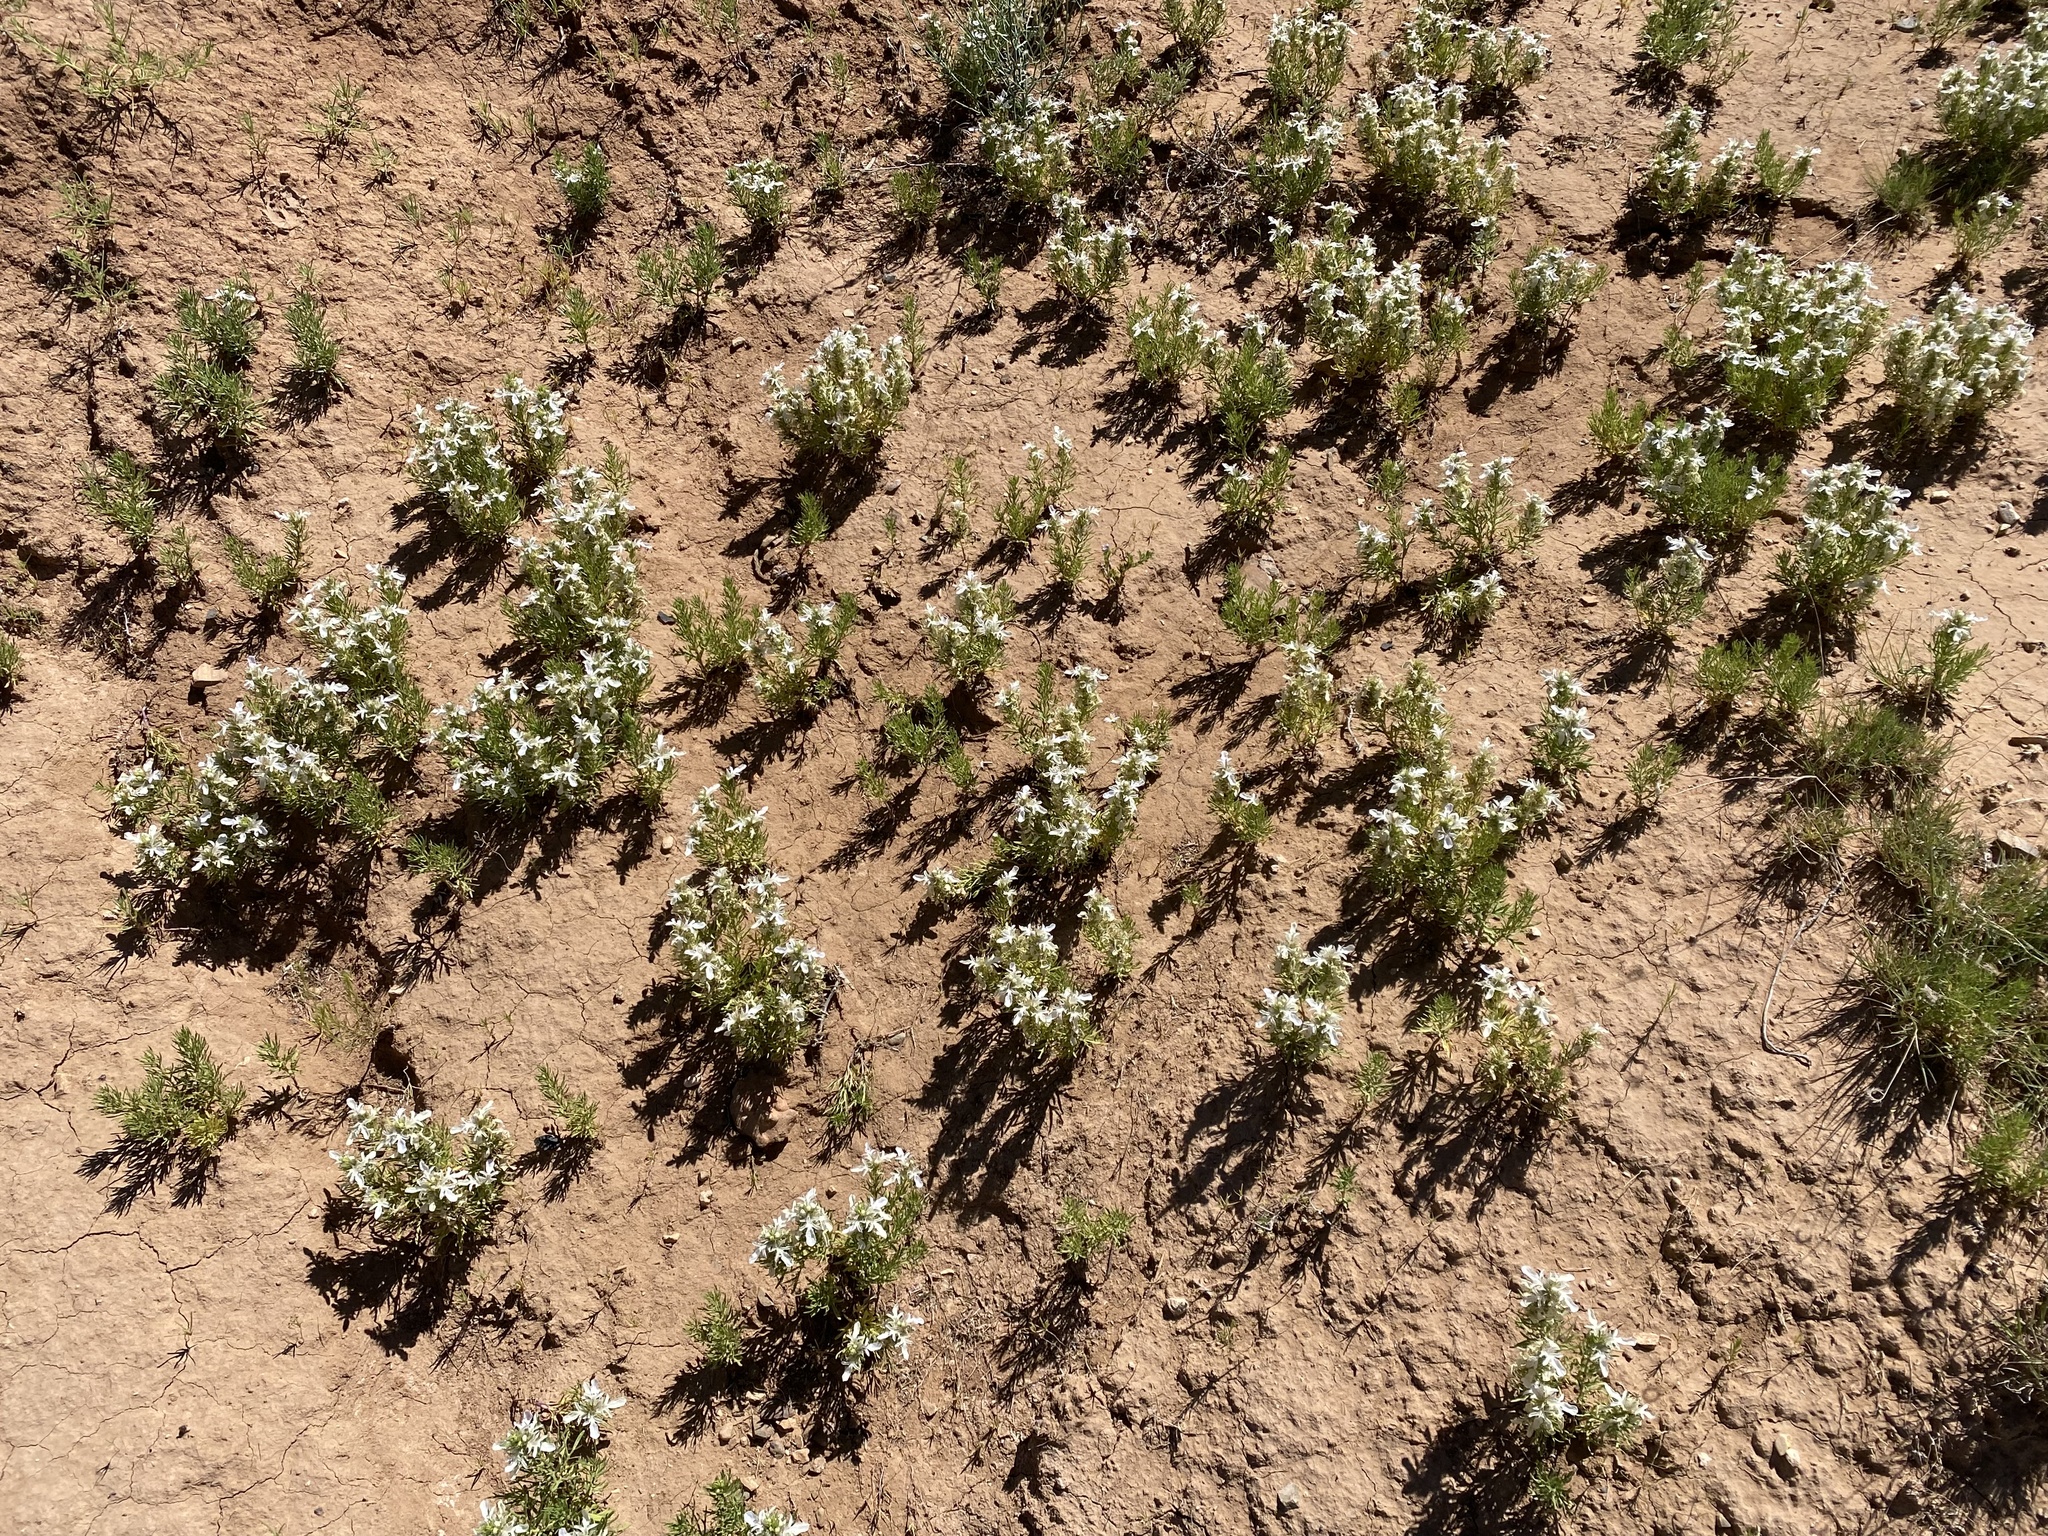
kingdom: Plantae
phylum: Tracheophyta
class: Magnoliopsida
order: Lamiales
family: Lamiaceae
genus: Teucrium
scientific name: Teucrium laciniatum
